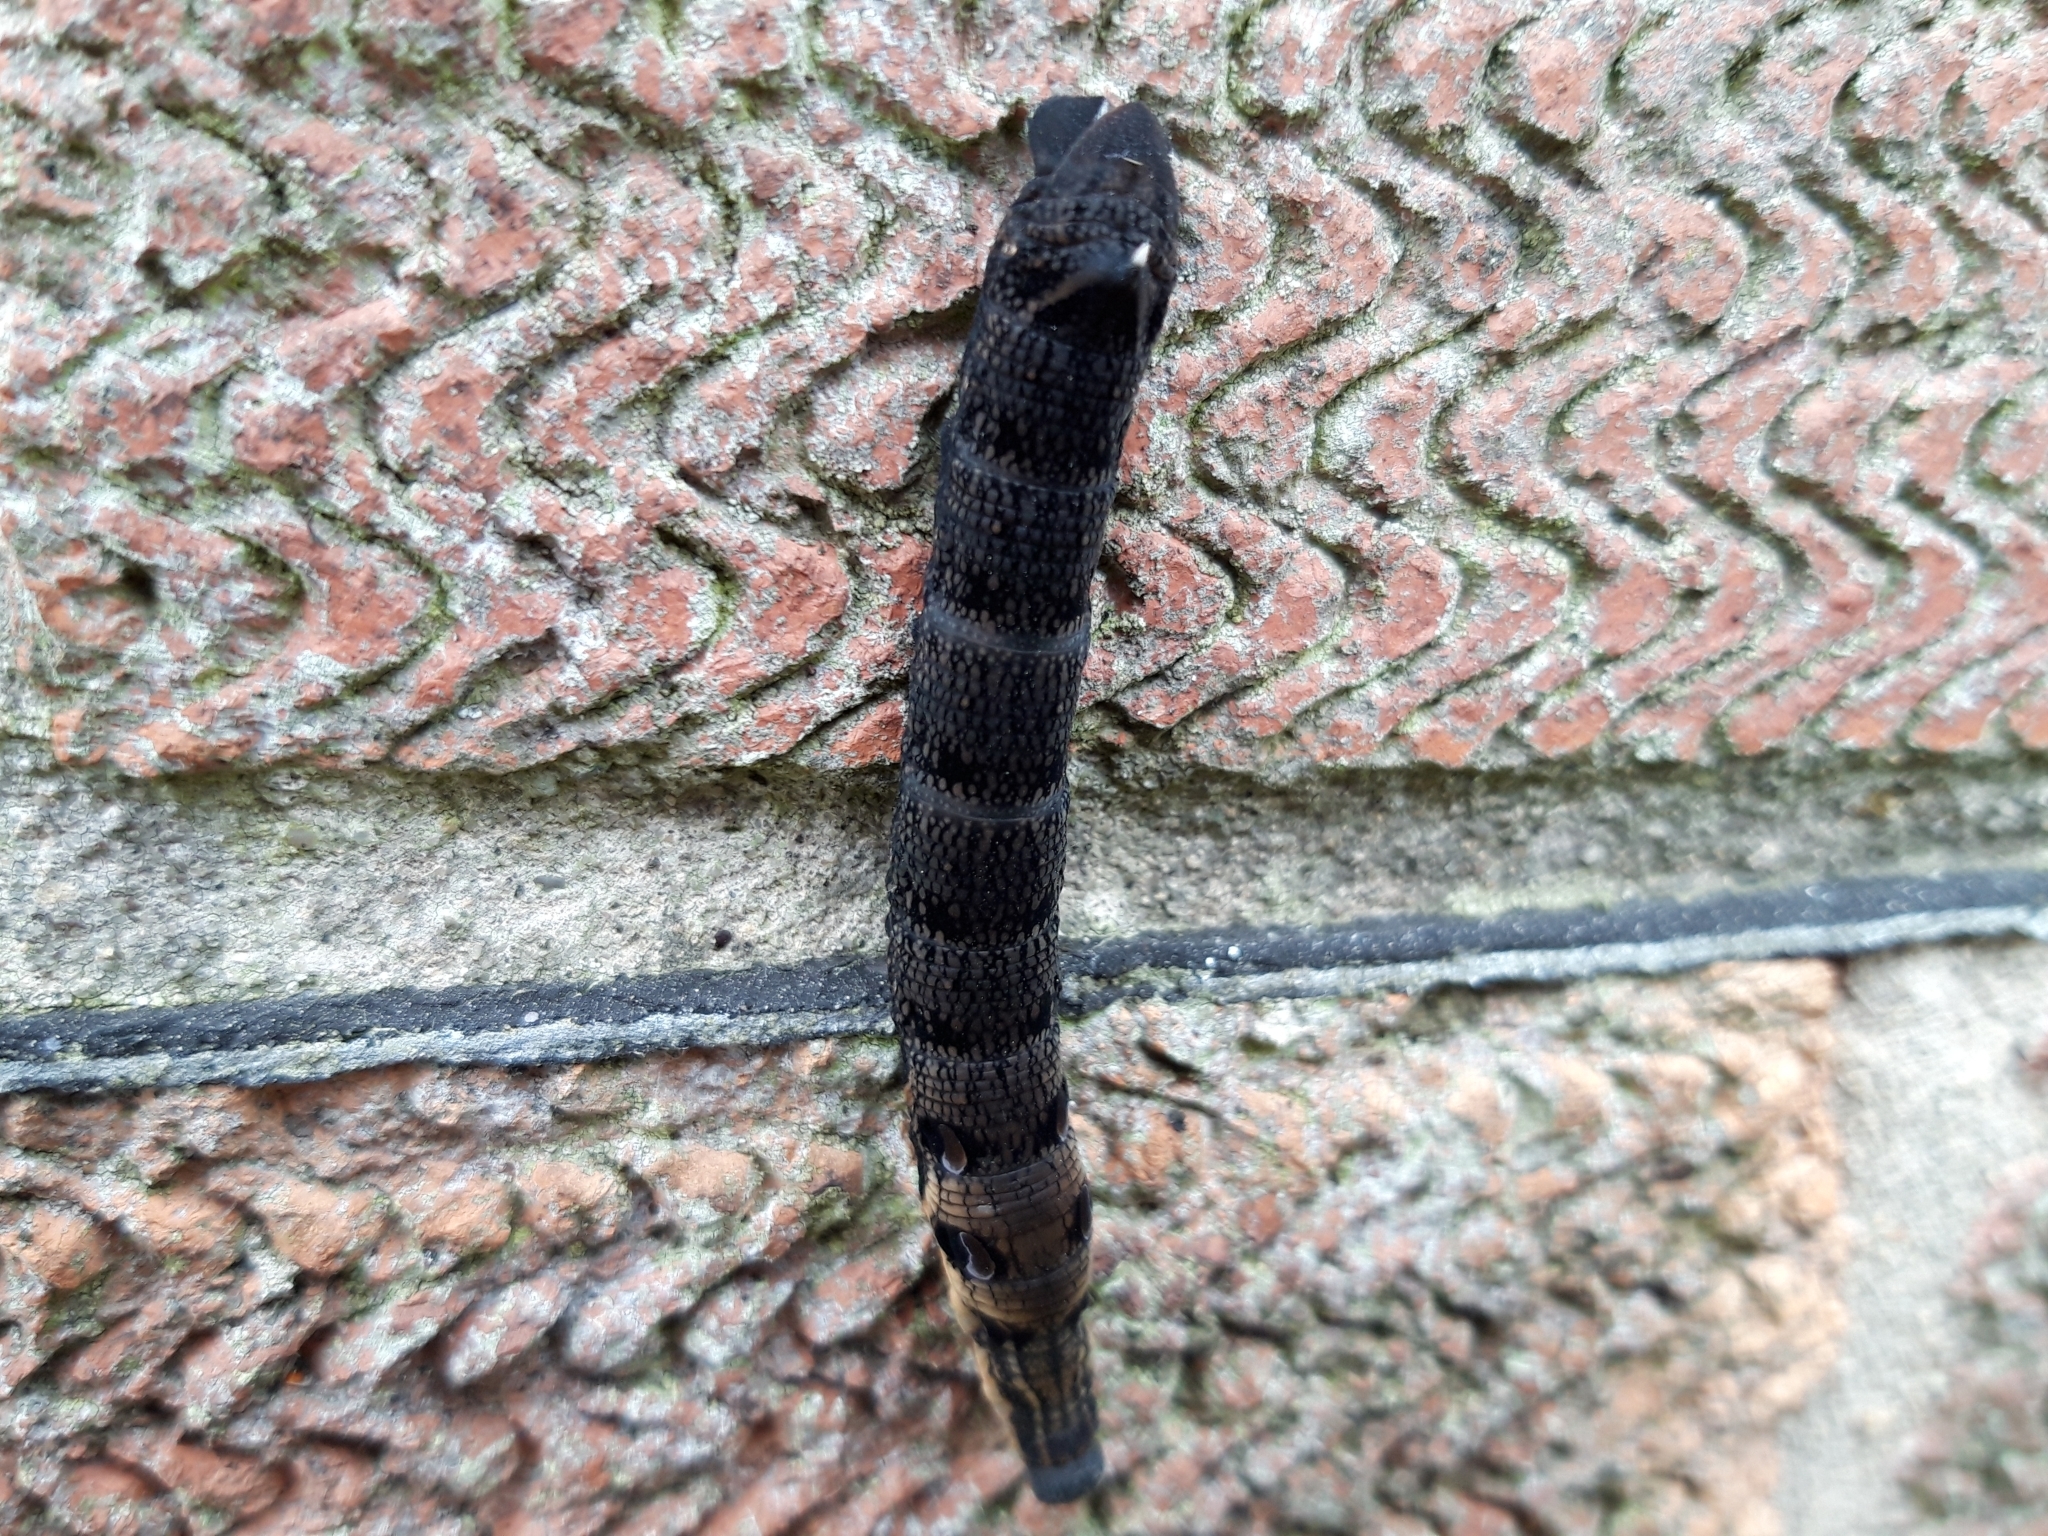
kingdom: Animalia
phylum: Arthropoda
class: Insecta
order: Lepidoptera
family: Sphingidae
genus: Deilephila
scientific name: Deilephila elpenor
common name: Elephant hawk-moth
